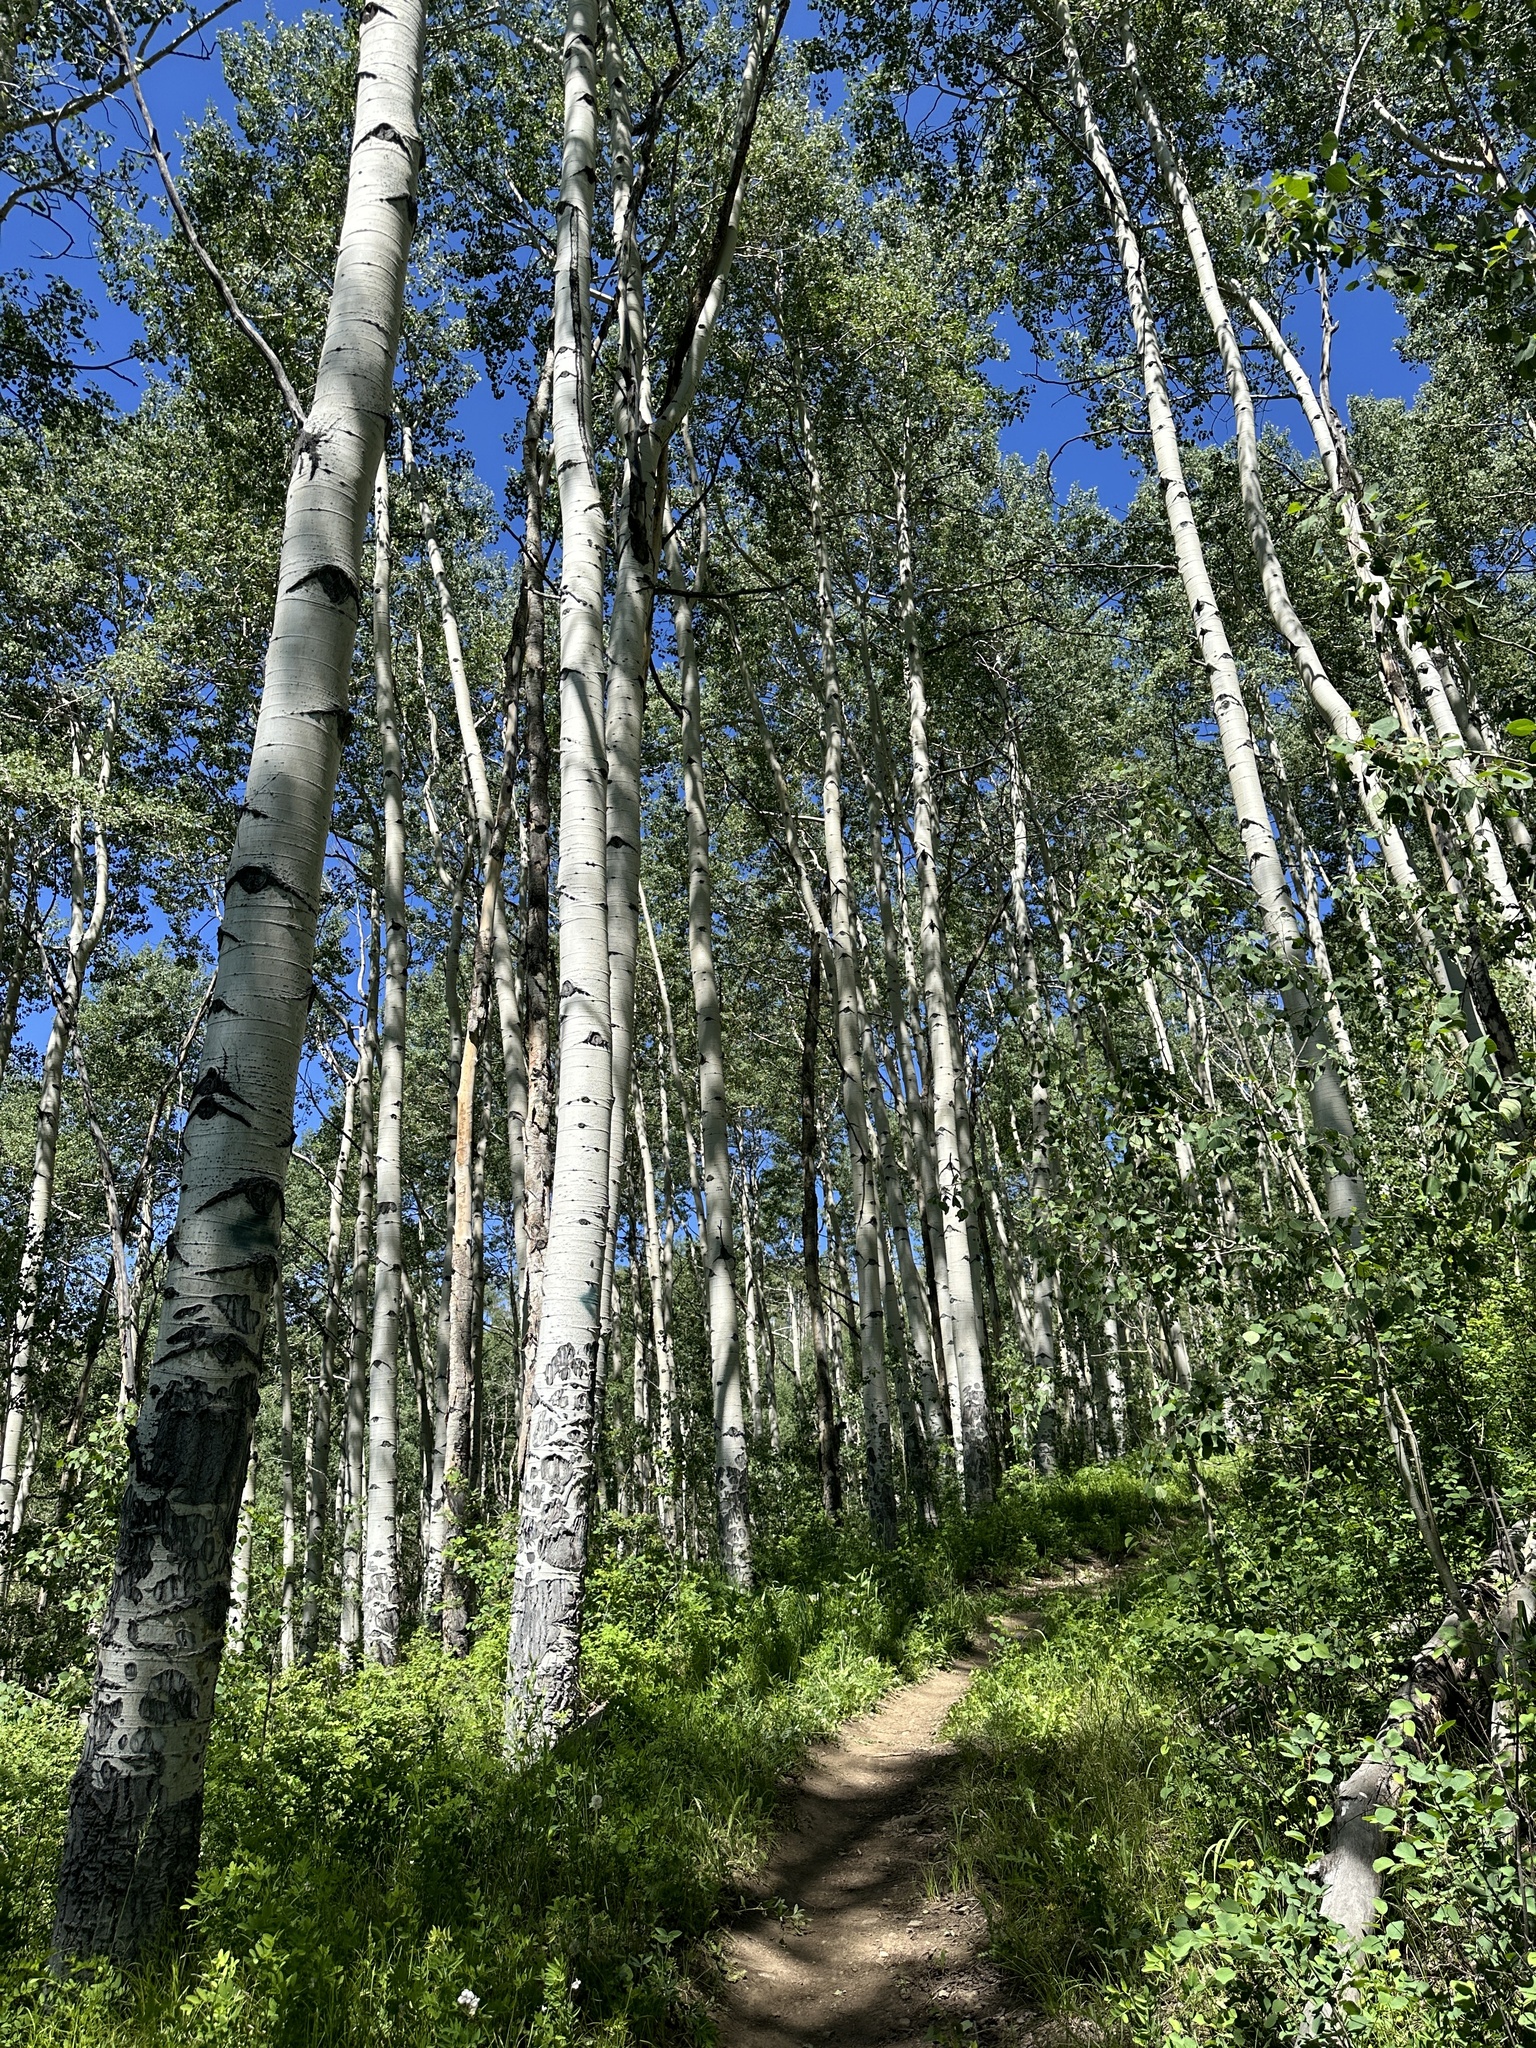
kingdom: Plantae
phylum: Tracheophyta
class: Magnoliopsida
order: Malpighiales
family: Salicaceae
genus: Populus
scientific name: Populus tremuloides
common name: Quaking aspen
